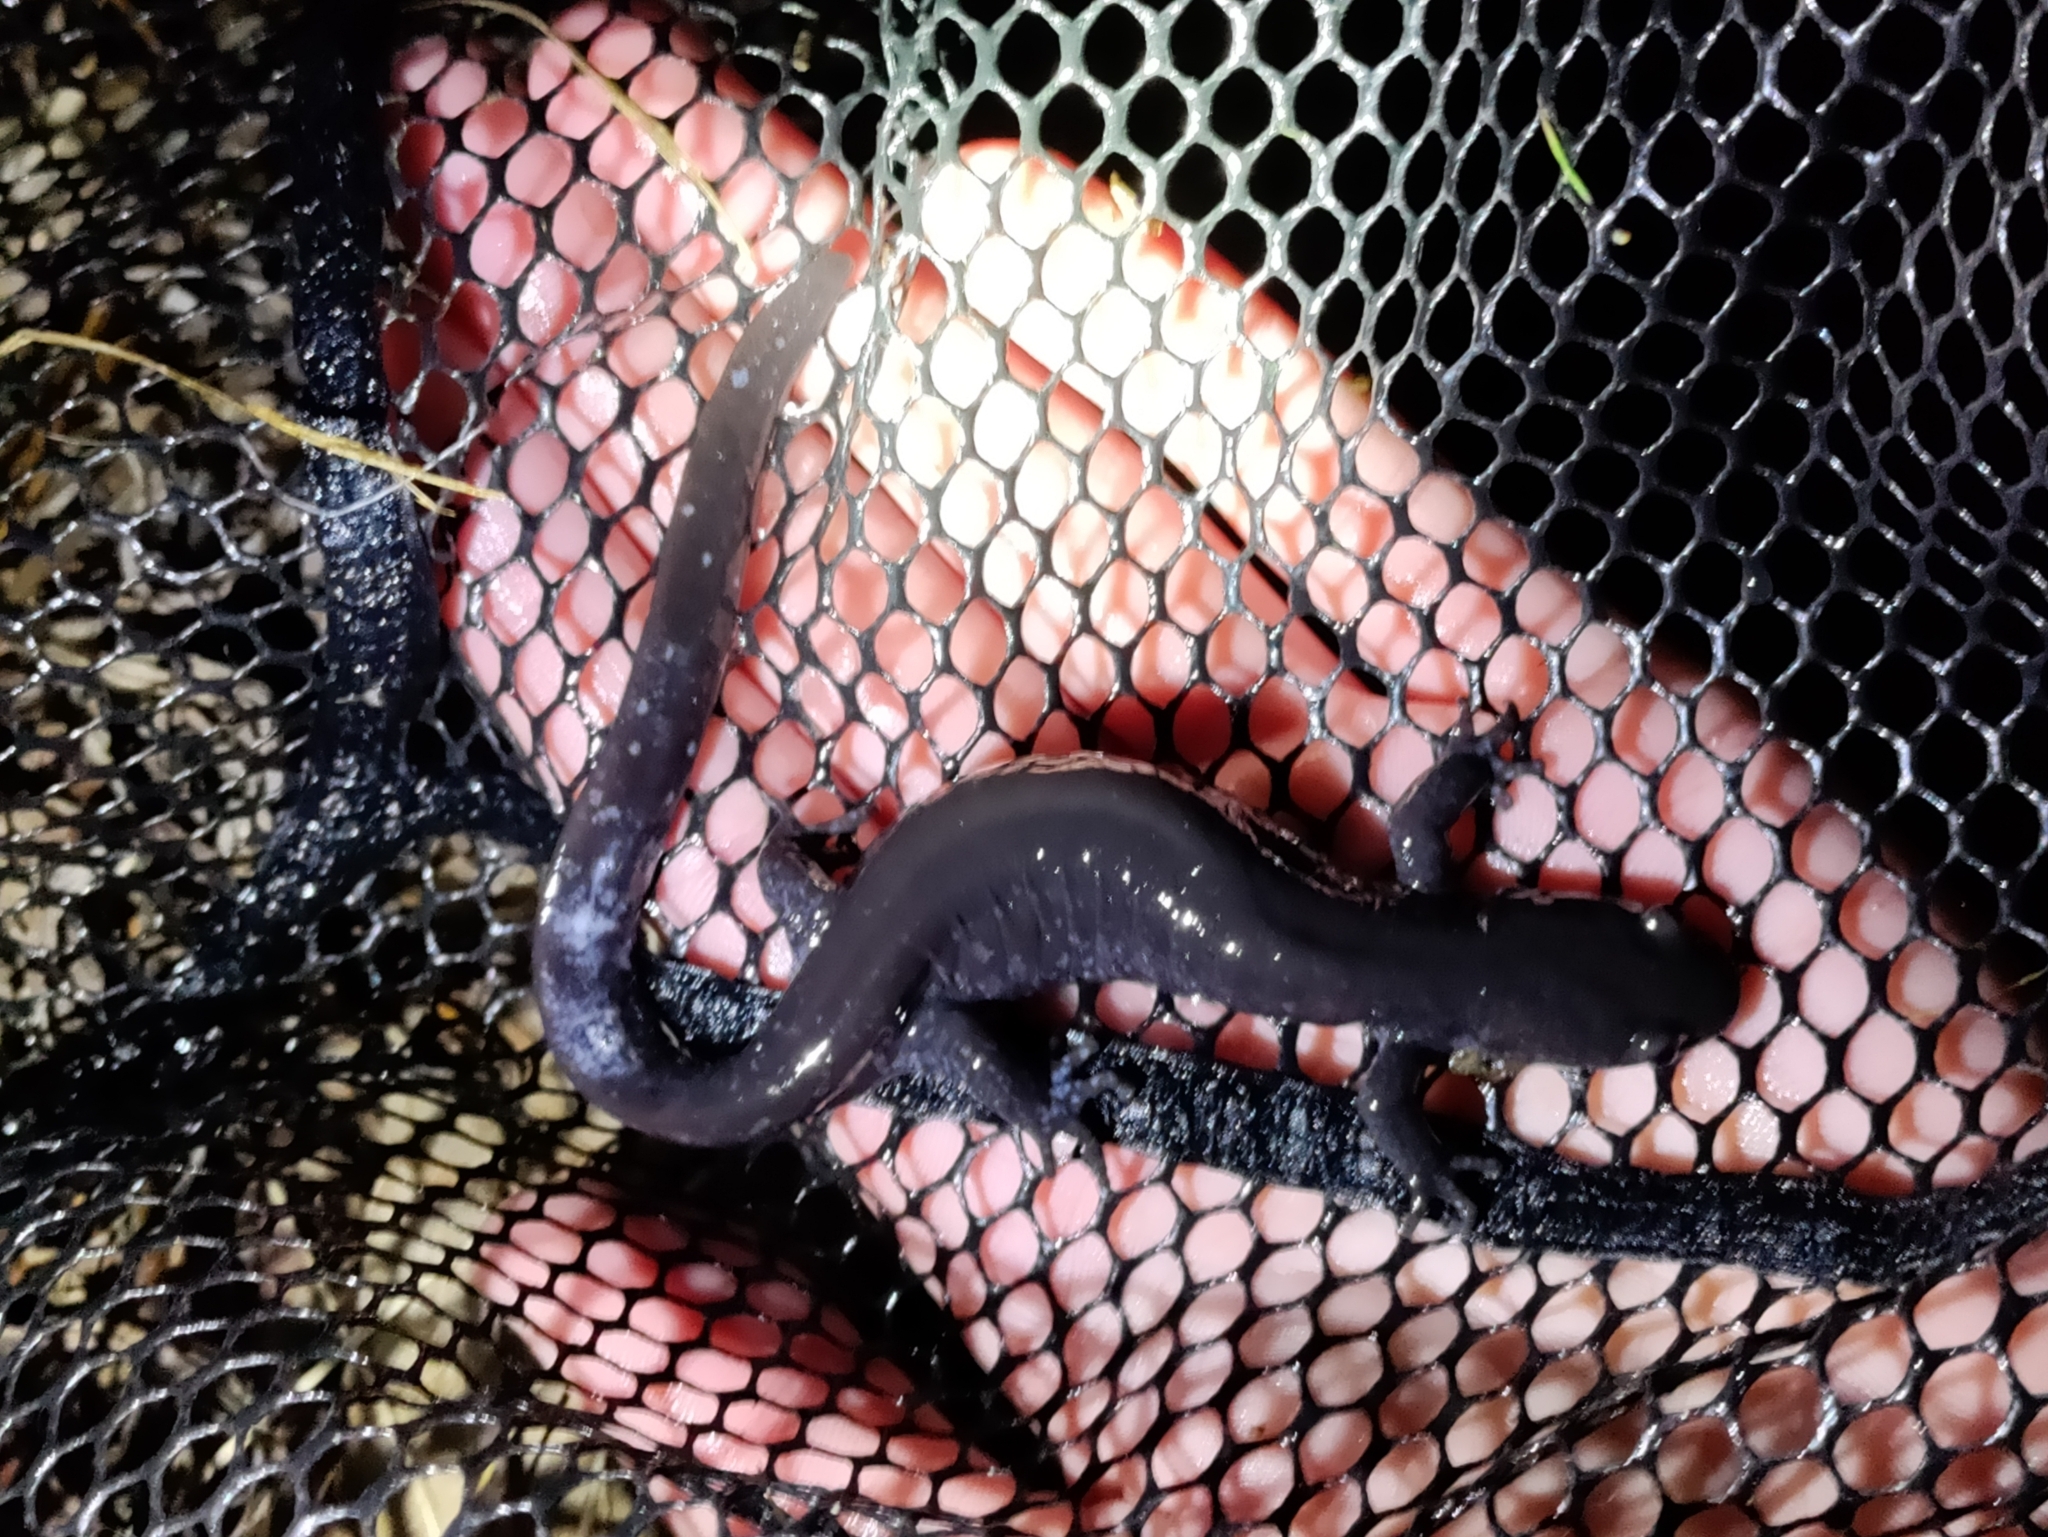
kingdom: Animalia
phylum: Chordata
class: Amphibia
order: Caudata
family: Ambystomatidae
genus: Ambystoma
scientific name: Ambystoma jeffersonianum
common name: Jefferson salamander
